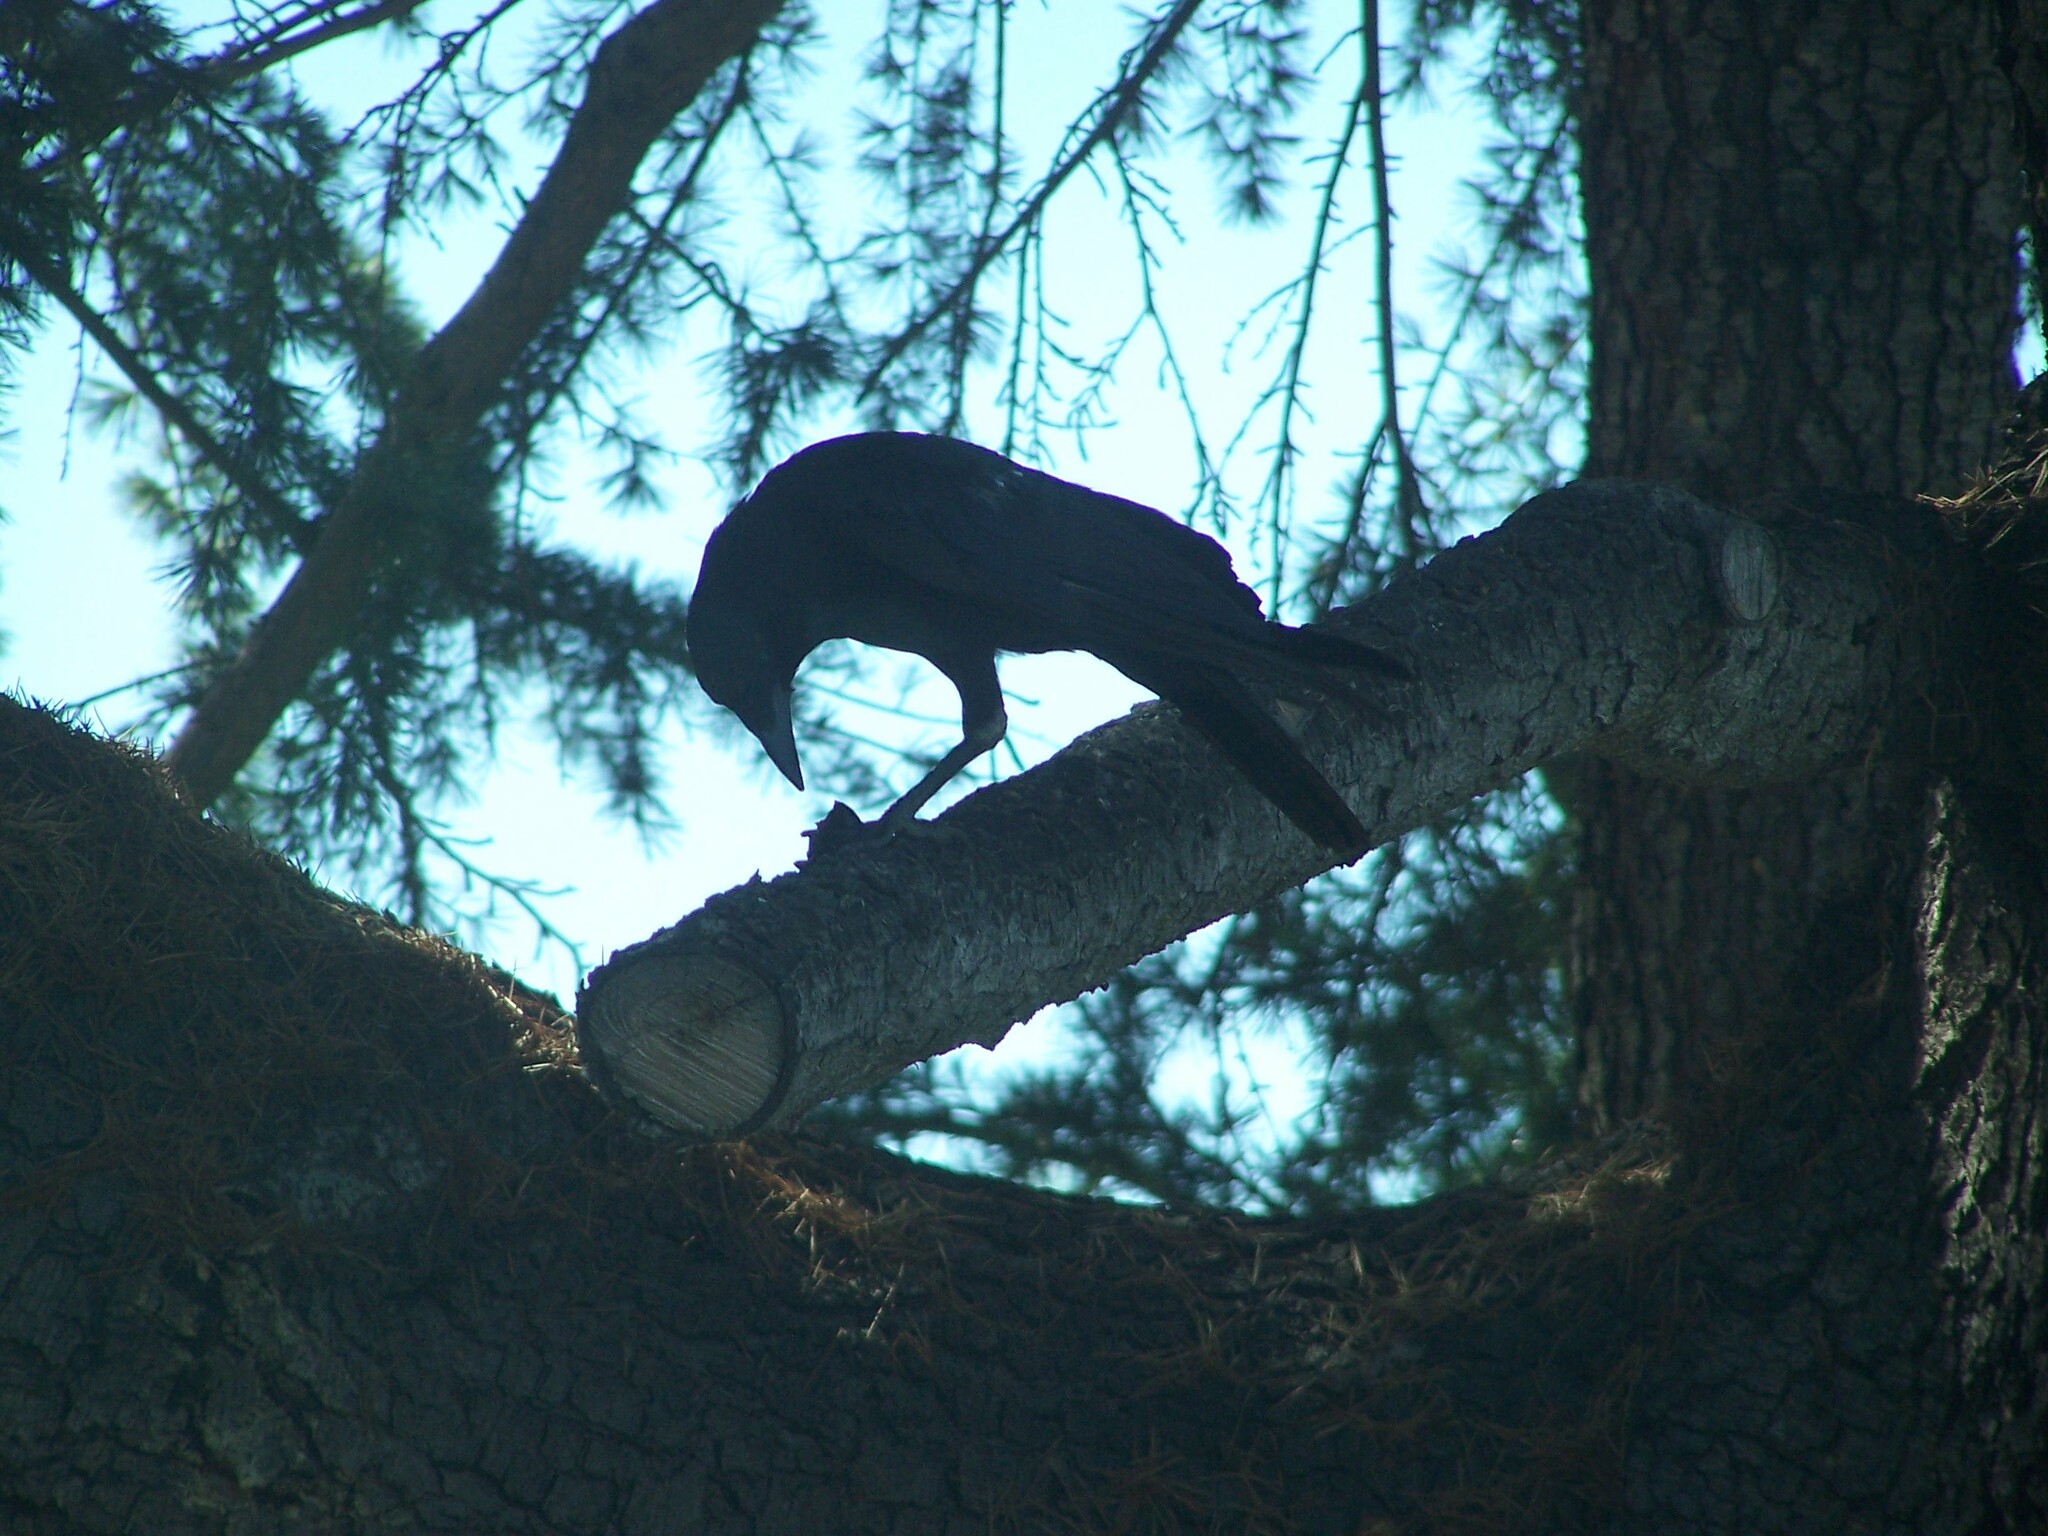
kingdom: Animalia
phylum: Chordata
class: Aves
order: Passeriformes
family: Corvidae
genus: Corvus
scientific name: Corvus brachyrhynchos
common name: American crow
